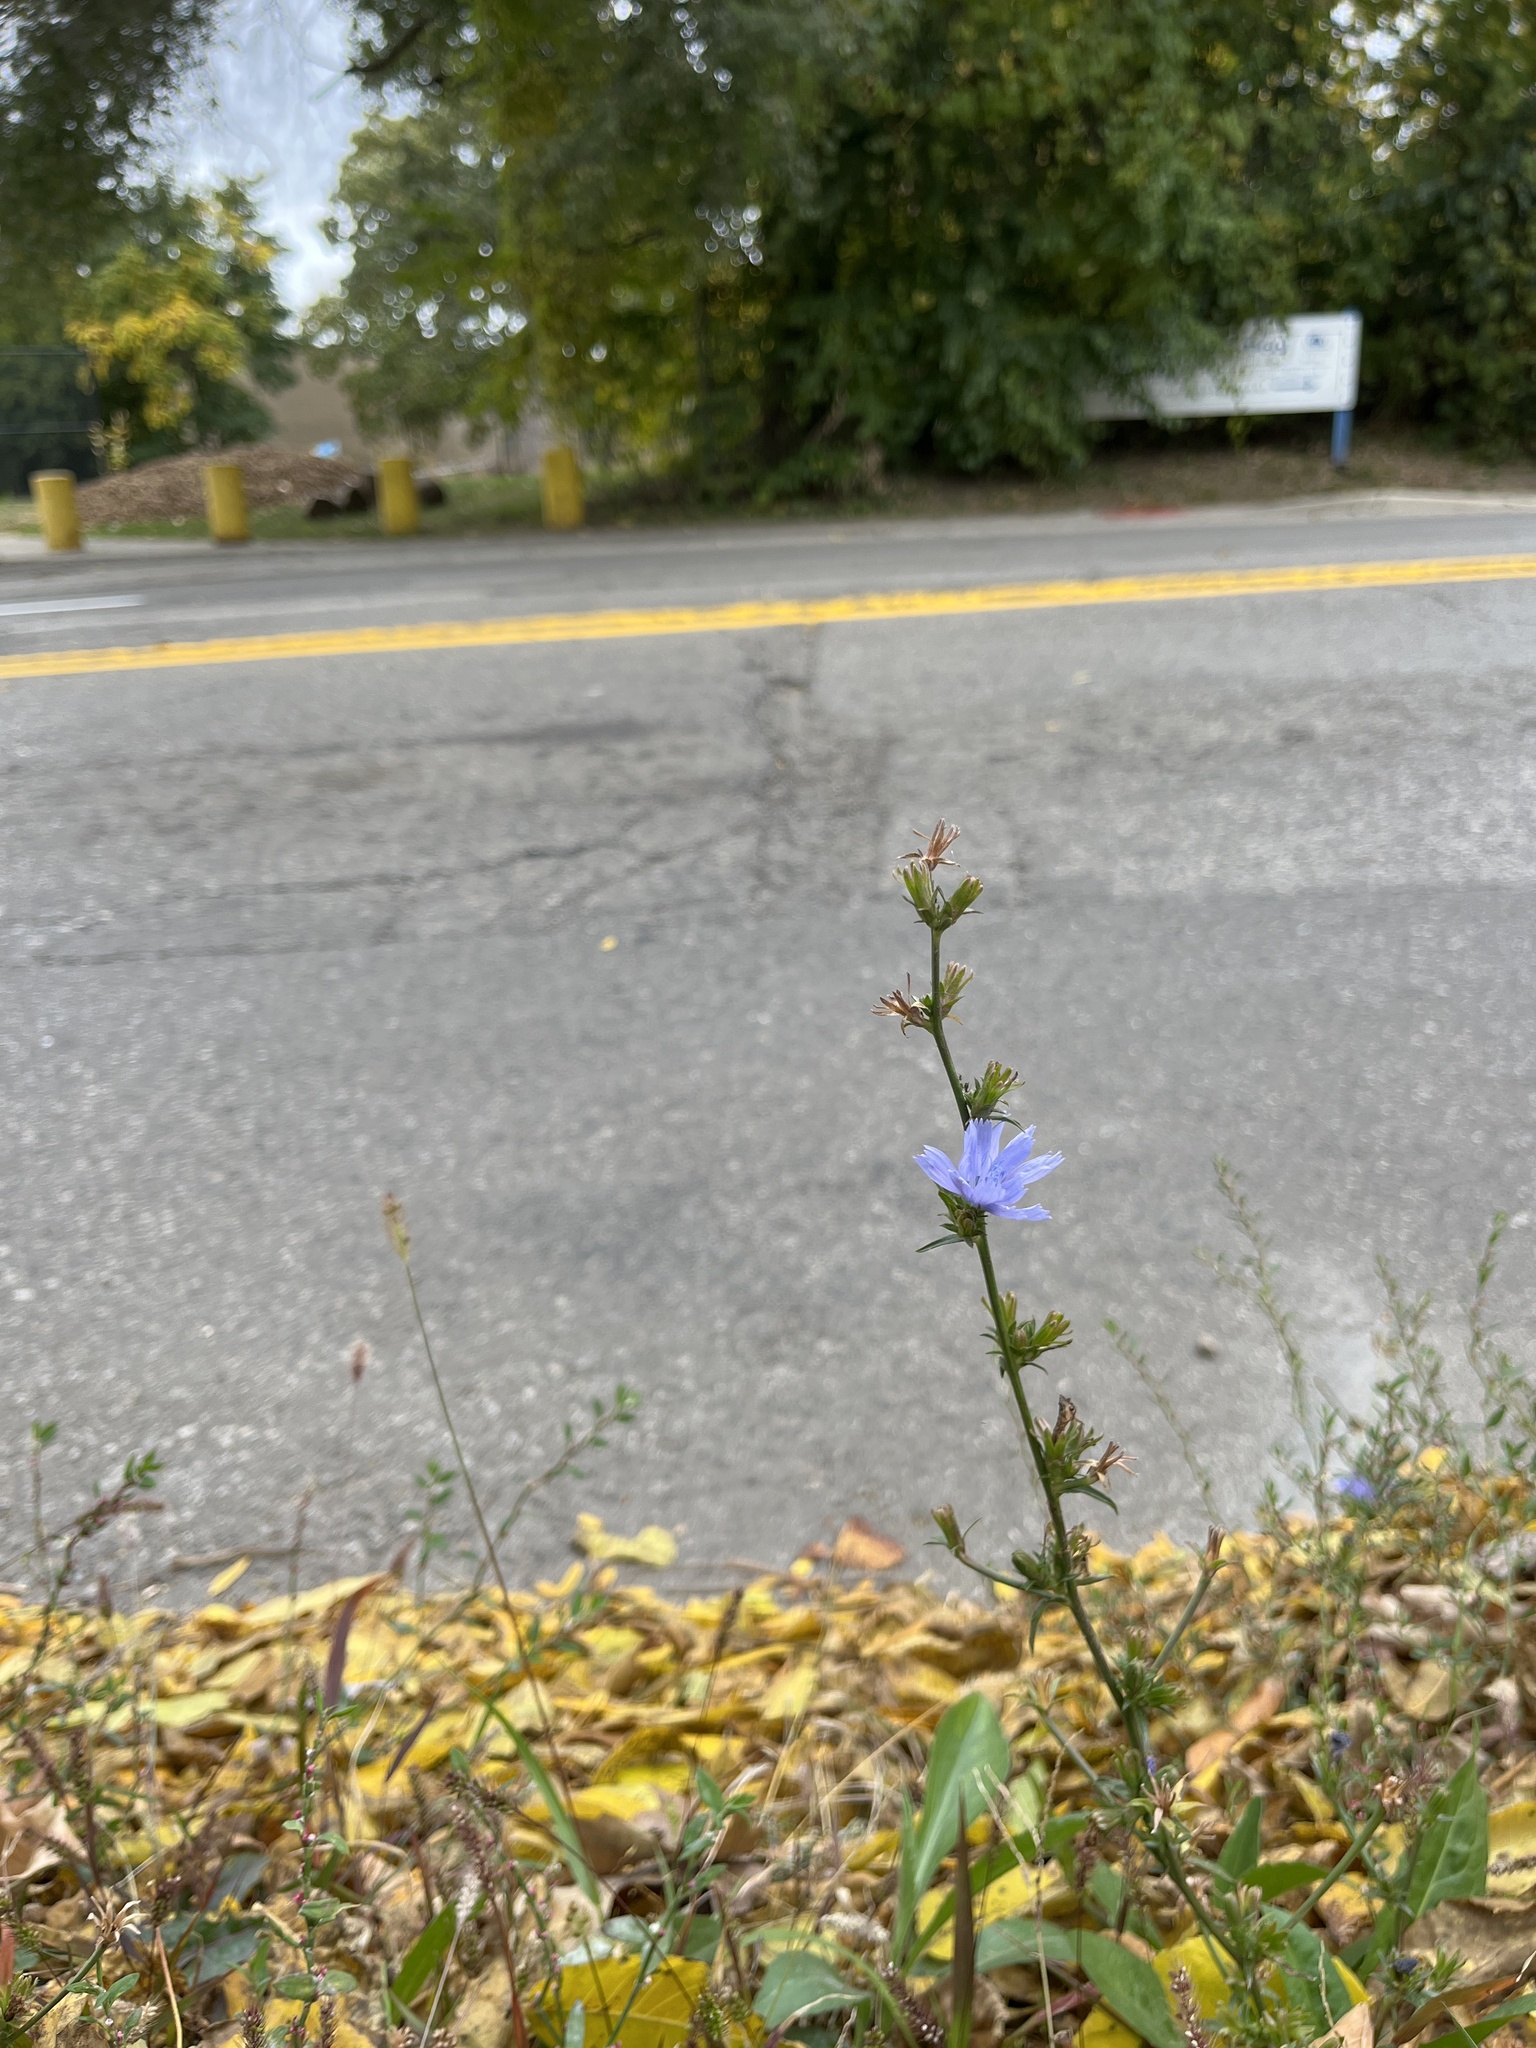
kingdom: Plantae
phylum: Tracheophyta
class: Magnoliopsida
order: Asterales
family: Asteraceae
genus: Cichorium
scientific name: Cichorium intybus
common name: Chicory
